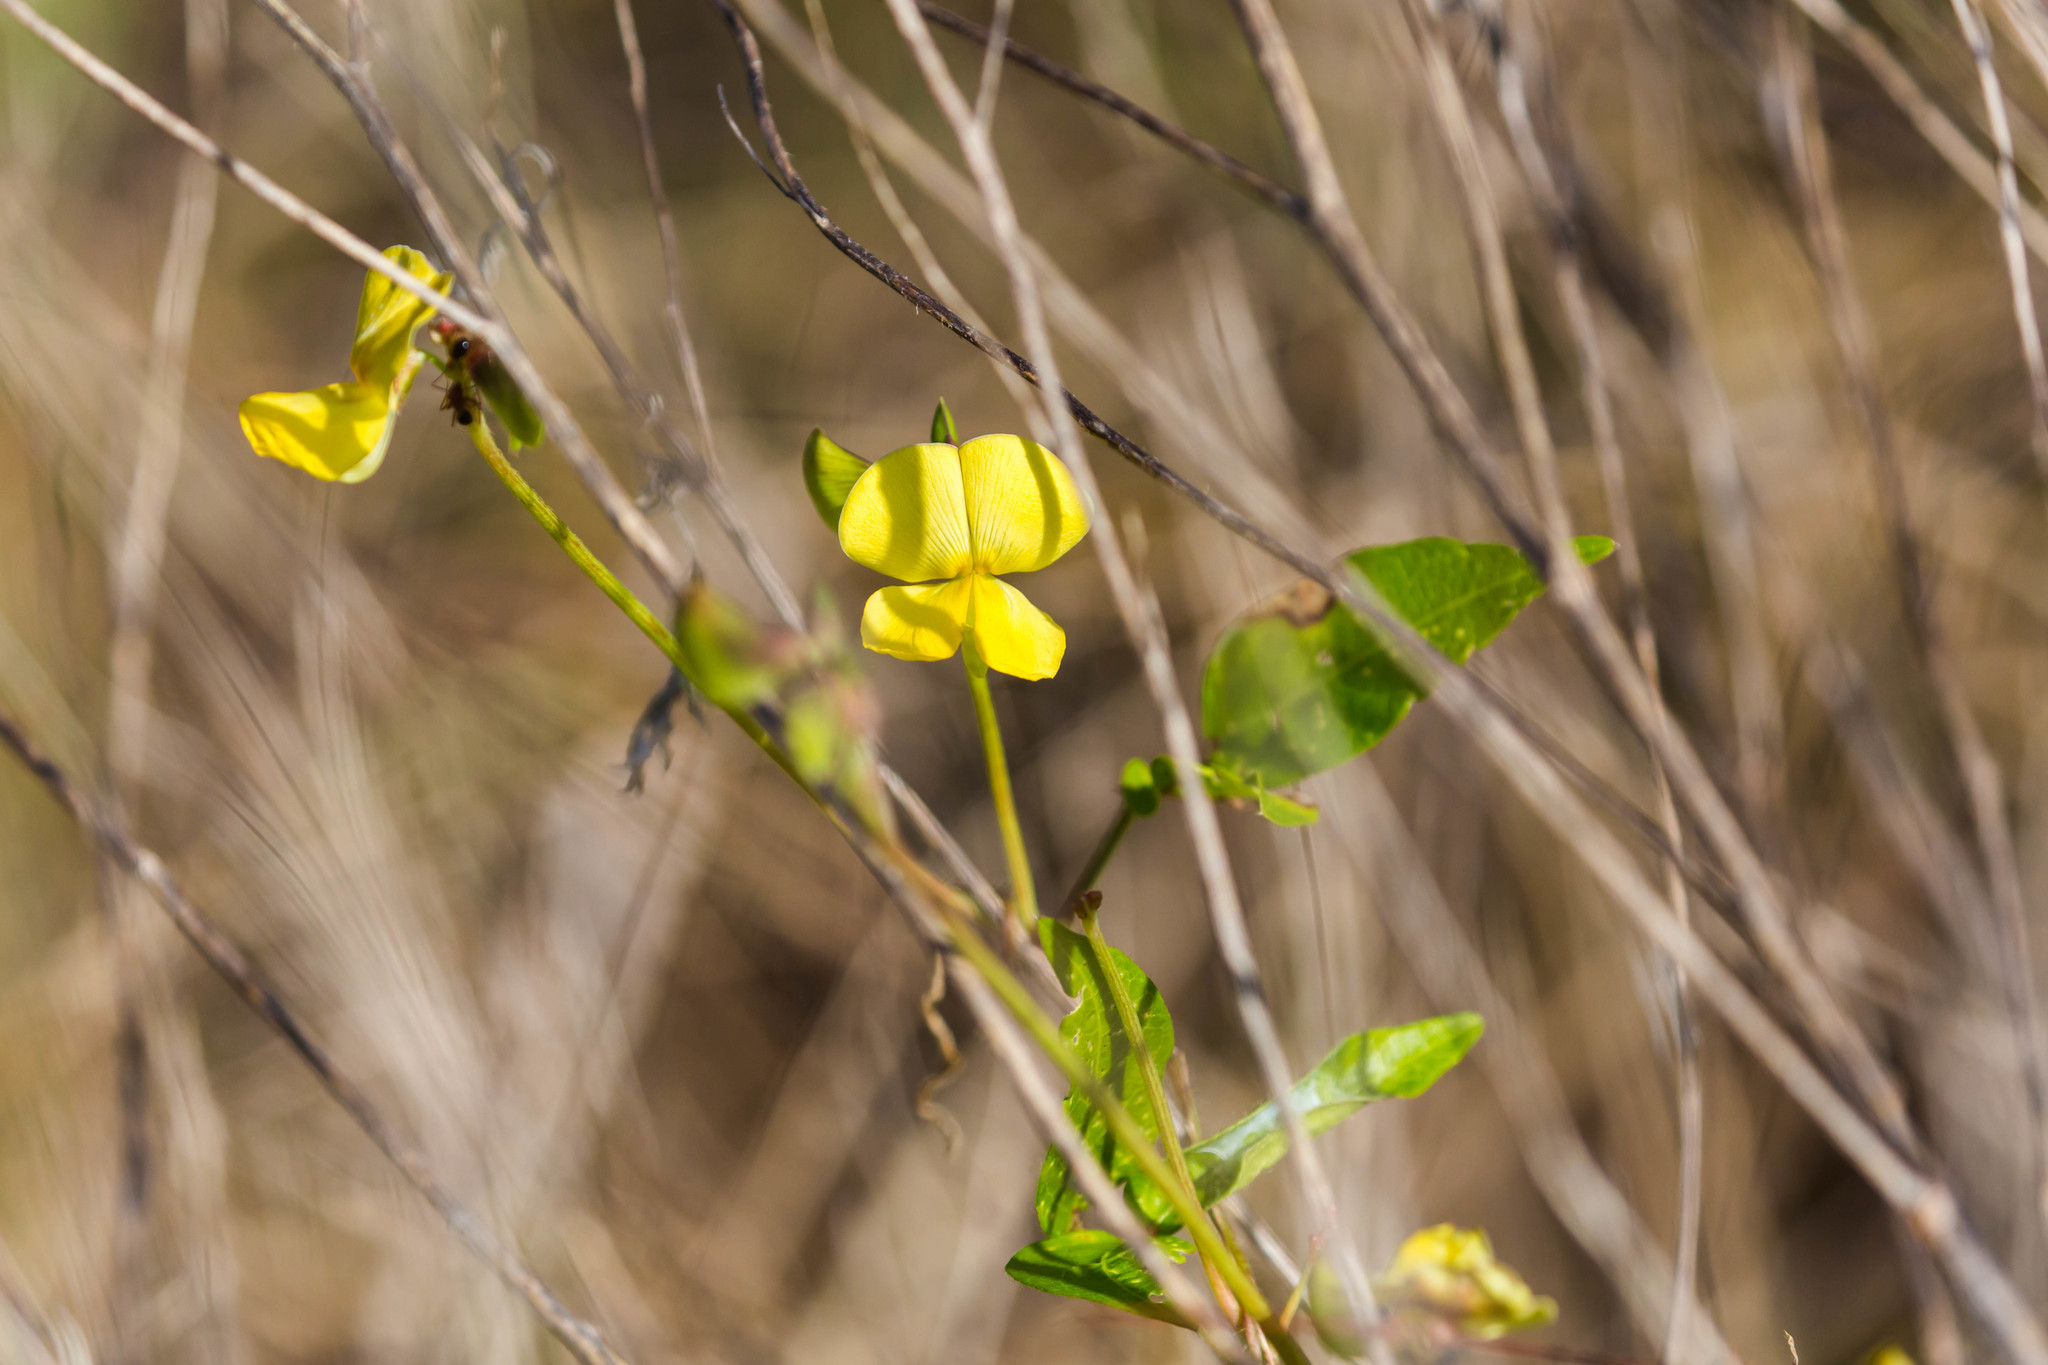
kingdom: Plantae
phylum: Tracheophyta
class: Magnoliopsida
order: Fabales
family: Fabaceae
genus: Vigna
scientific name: Vigna luteola
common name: Hairypod cowpea
